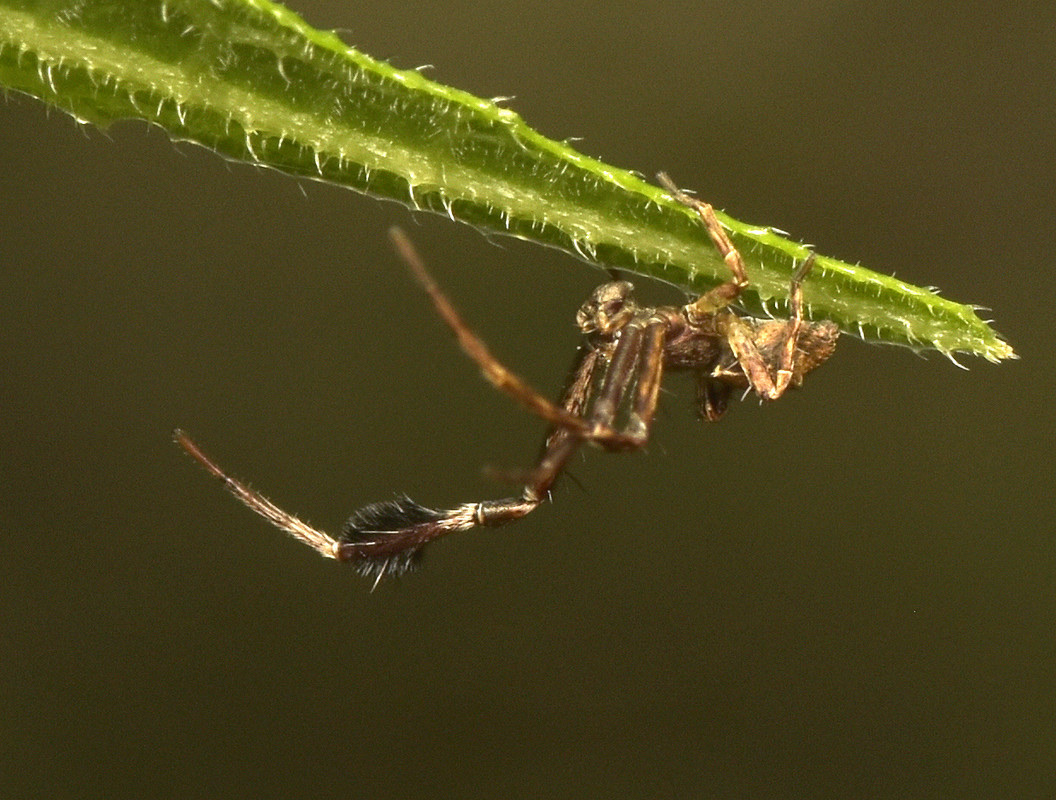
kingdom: Animalia
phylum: Arthropoda
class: Arachnida
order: Araneae
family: Thomisidae
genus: Stephanopis
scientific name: Stephanopis barbipes
